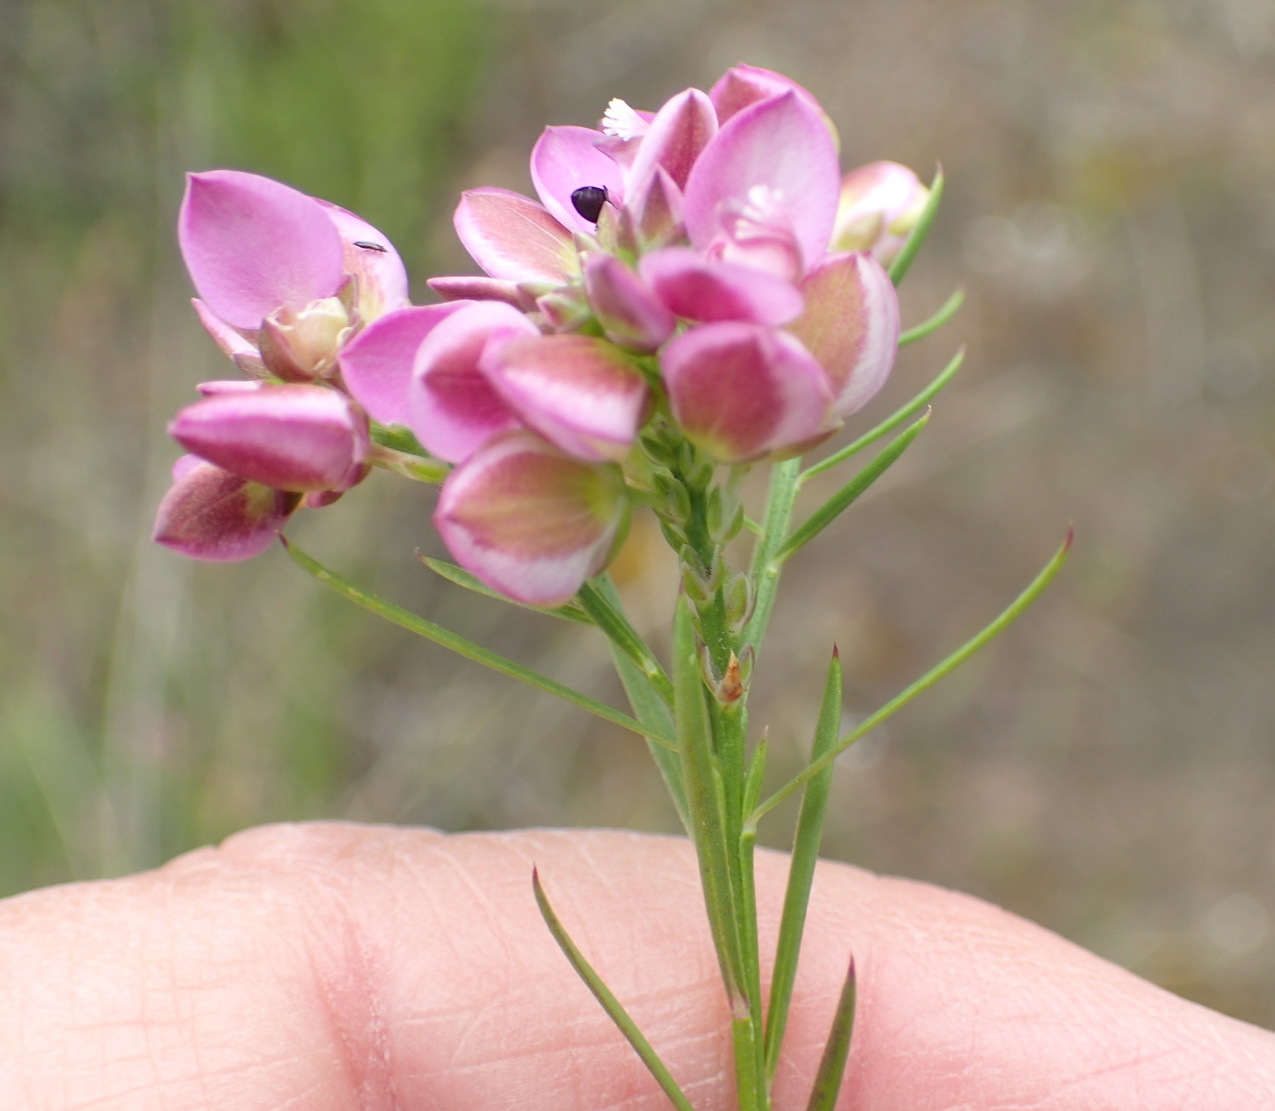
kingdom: Plantae
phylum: Tracheophyta
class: Magnoliopsida
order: Fabales
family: Polygalaceae
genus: Polygala
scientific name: Polygala ericifolia
